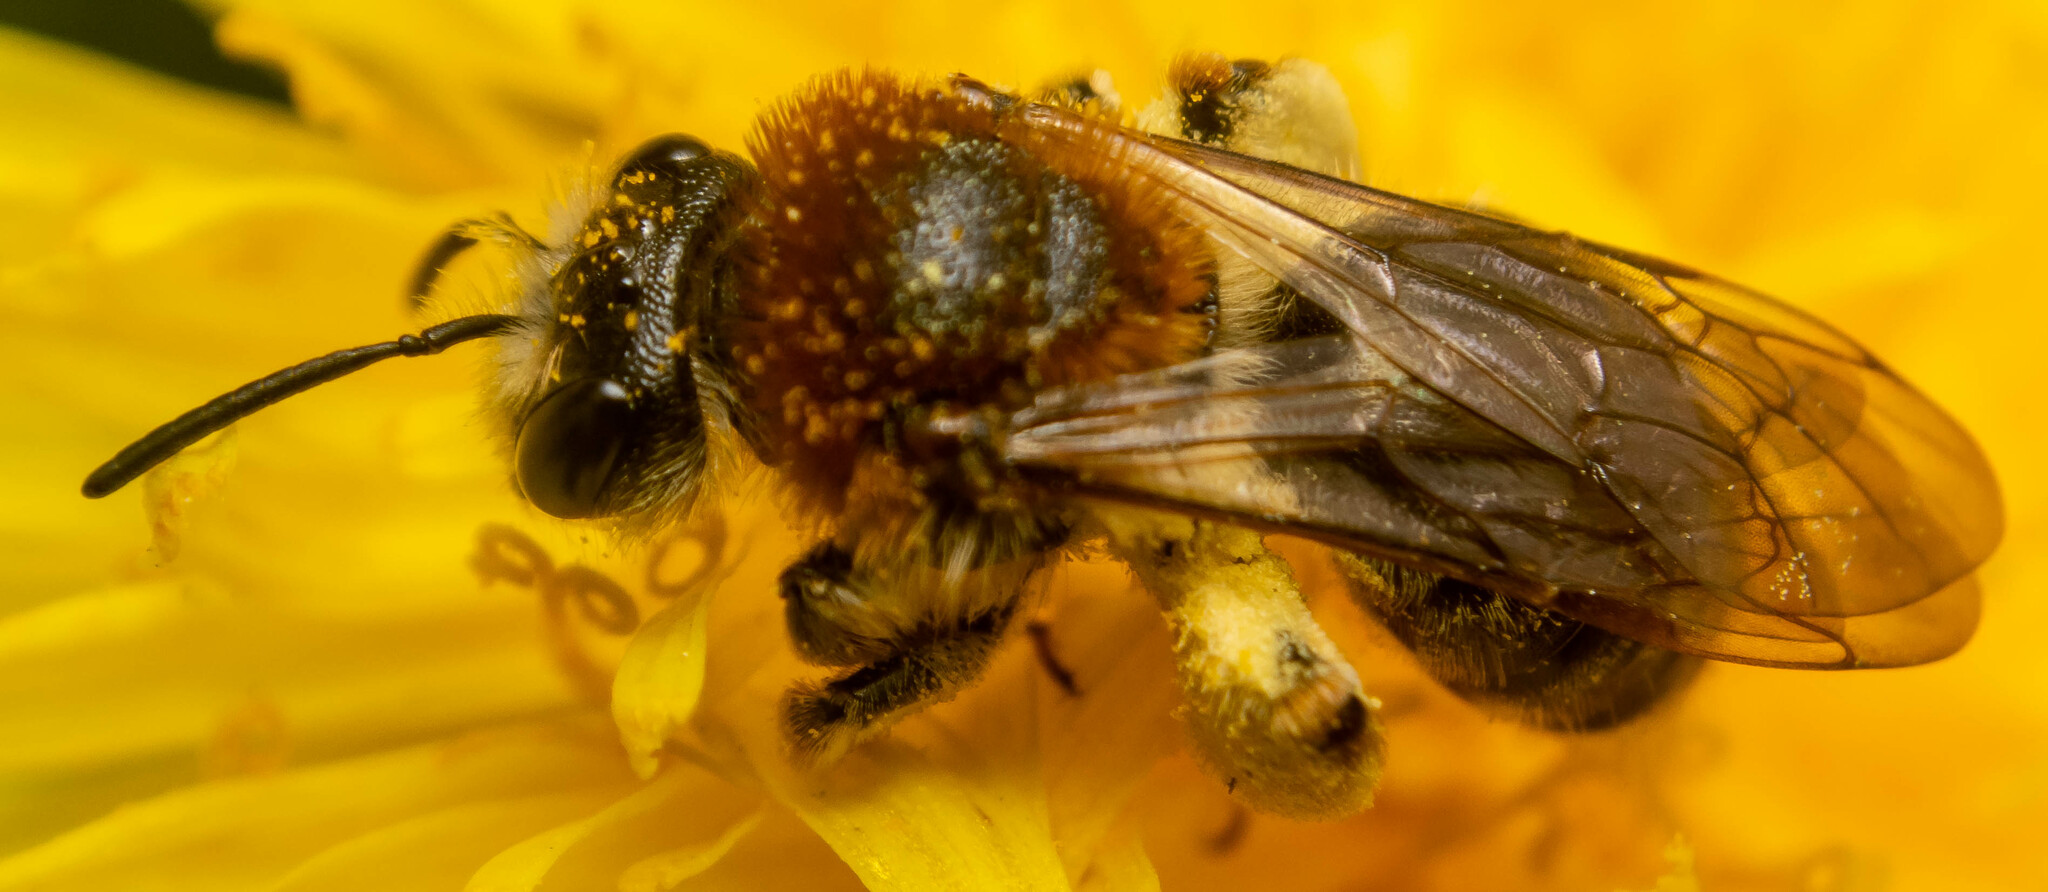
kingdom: Animalia
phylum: Arthropoda
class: Insecta
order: Hymenoptera
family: Andrenidae
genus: Andrena
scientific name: Andrena nitida
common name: Grey-patched mining bee
